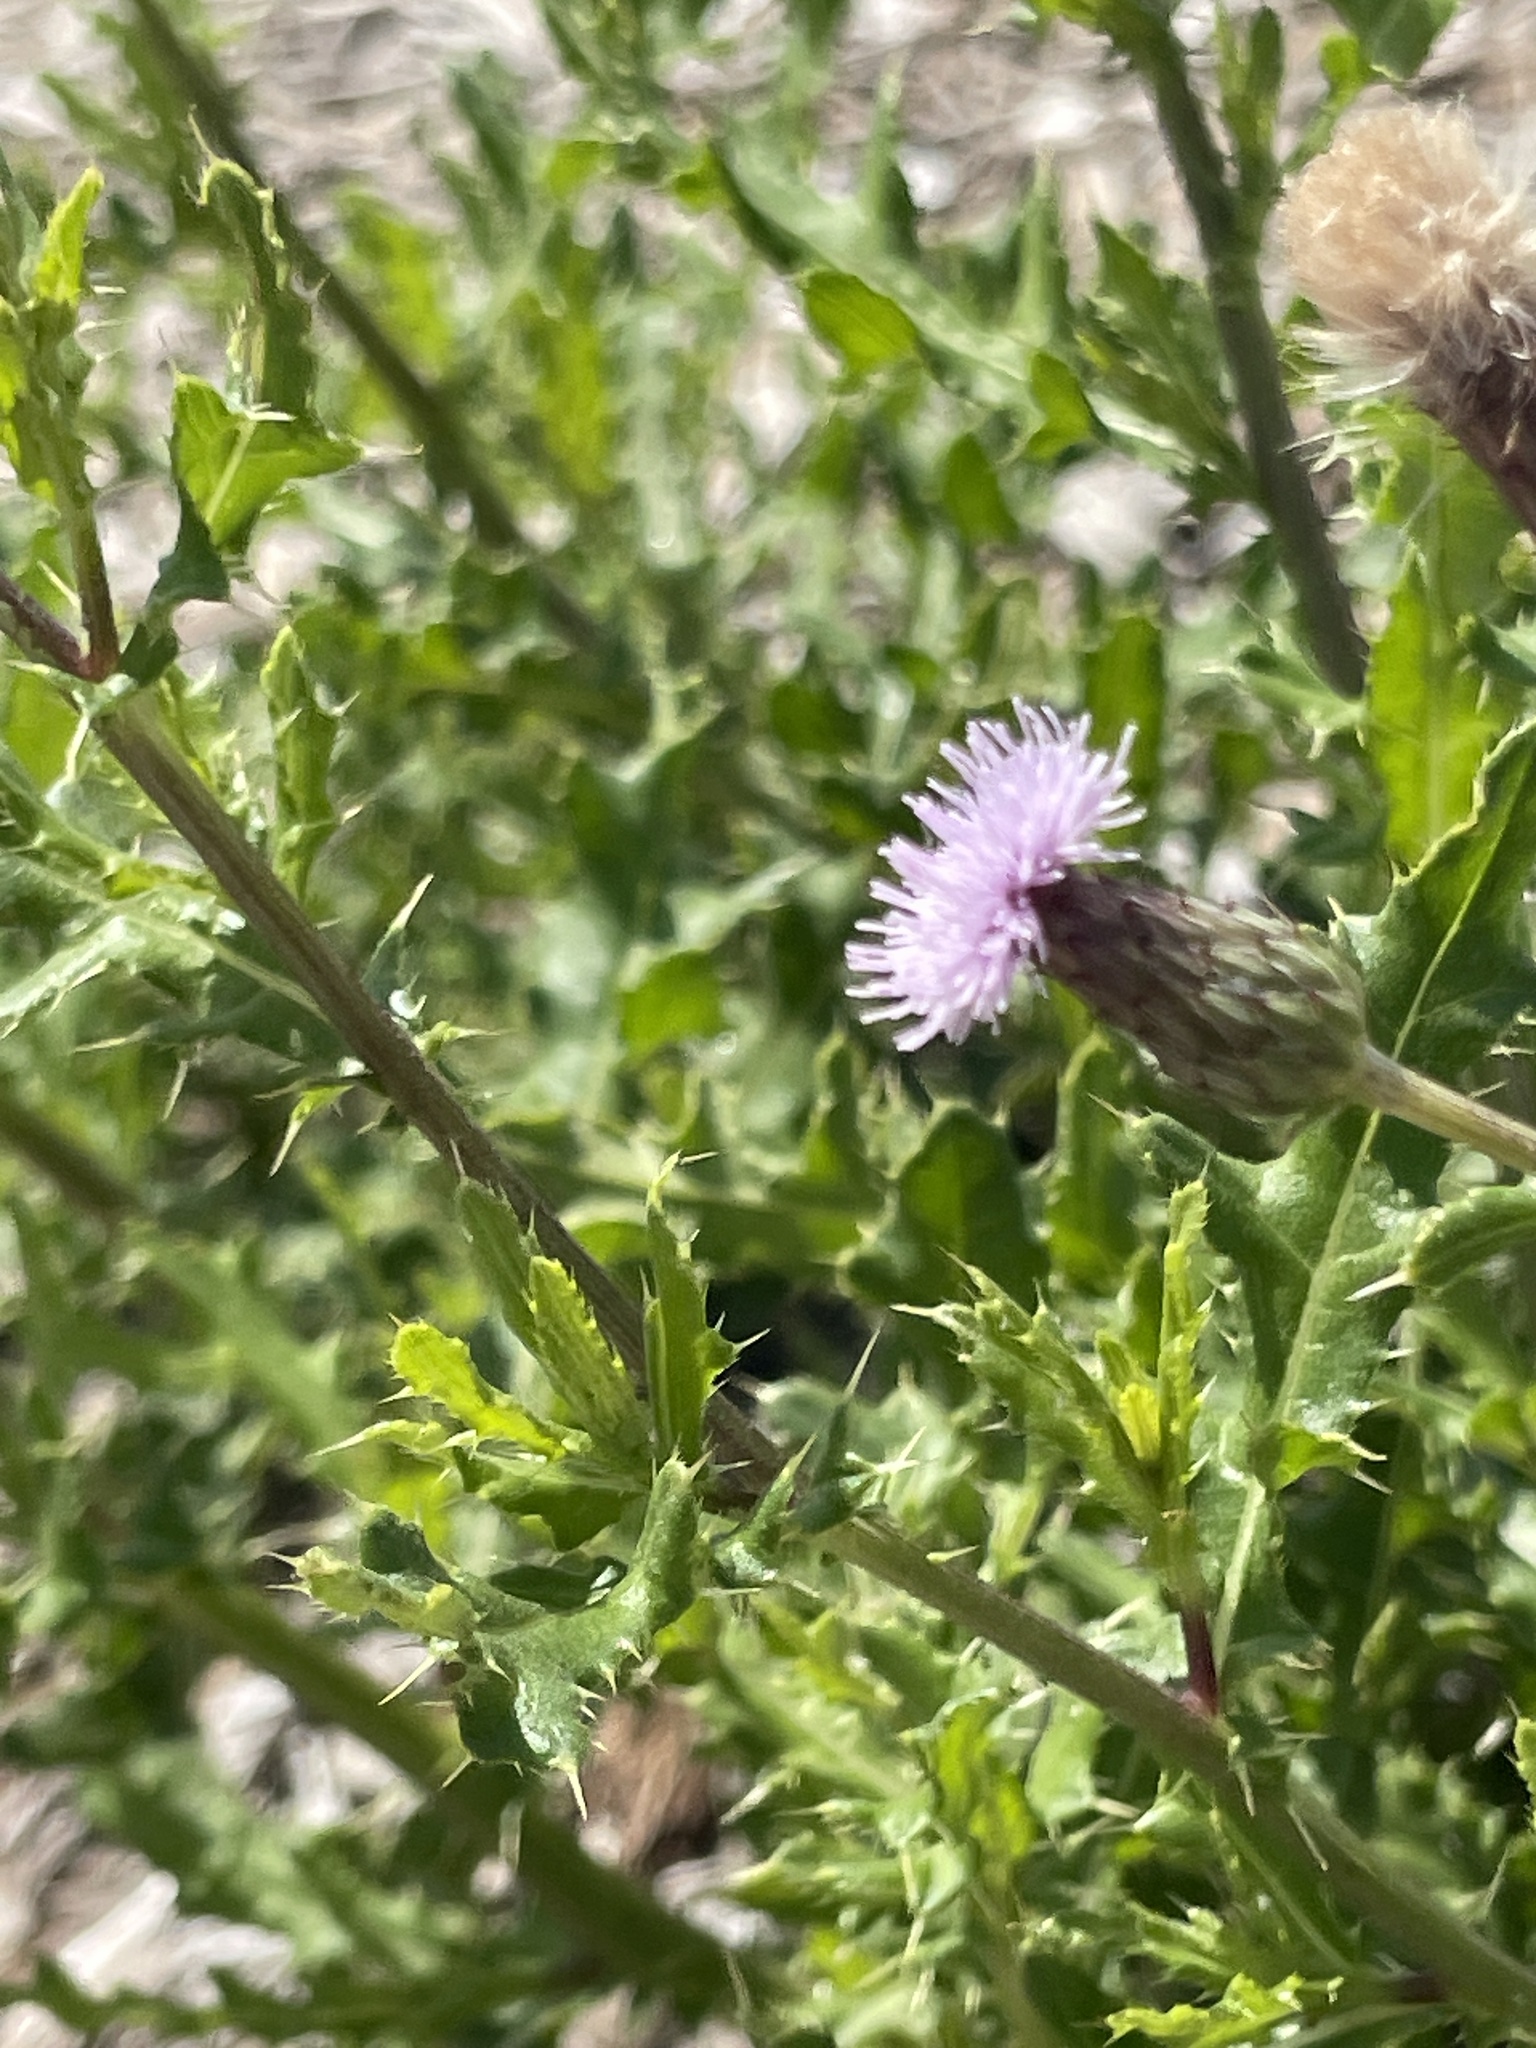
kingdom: Plantae
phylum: Tracheophyta
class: Magnoliopsida
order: Asterales
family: Asteraceae
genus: Cirsium
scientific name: Cirsium arvense
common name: Creeping thistle
